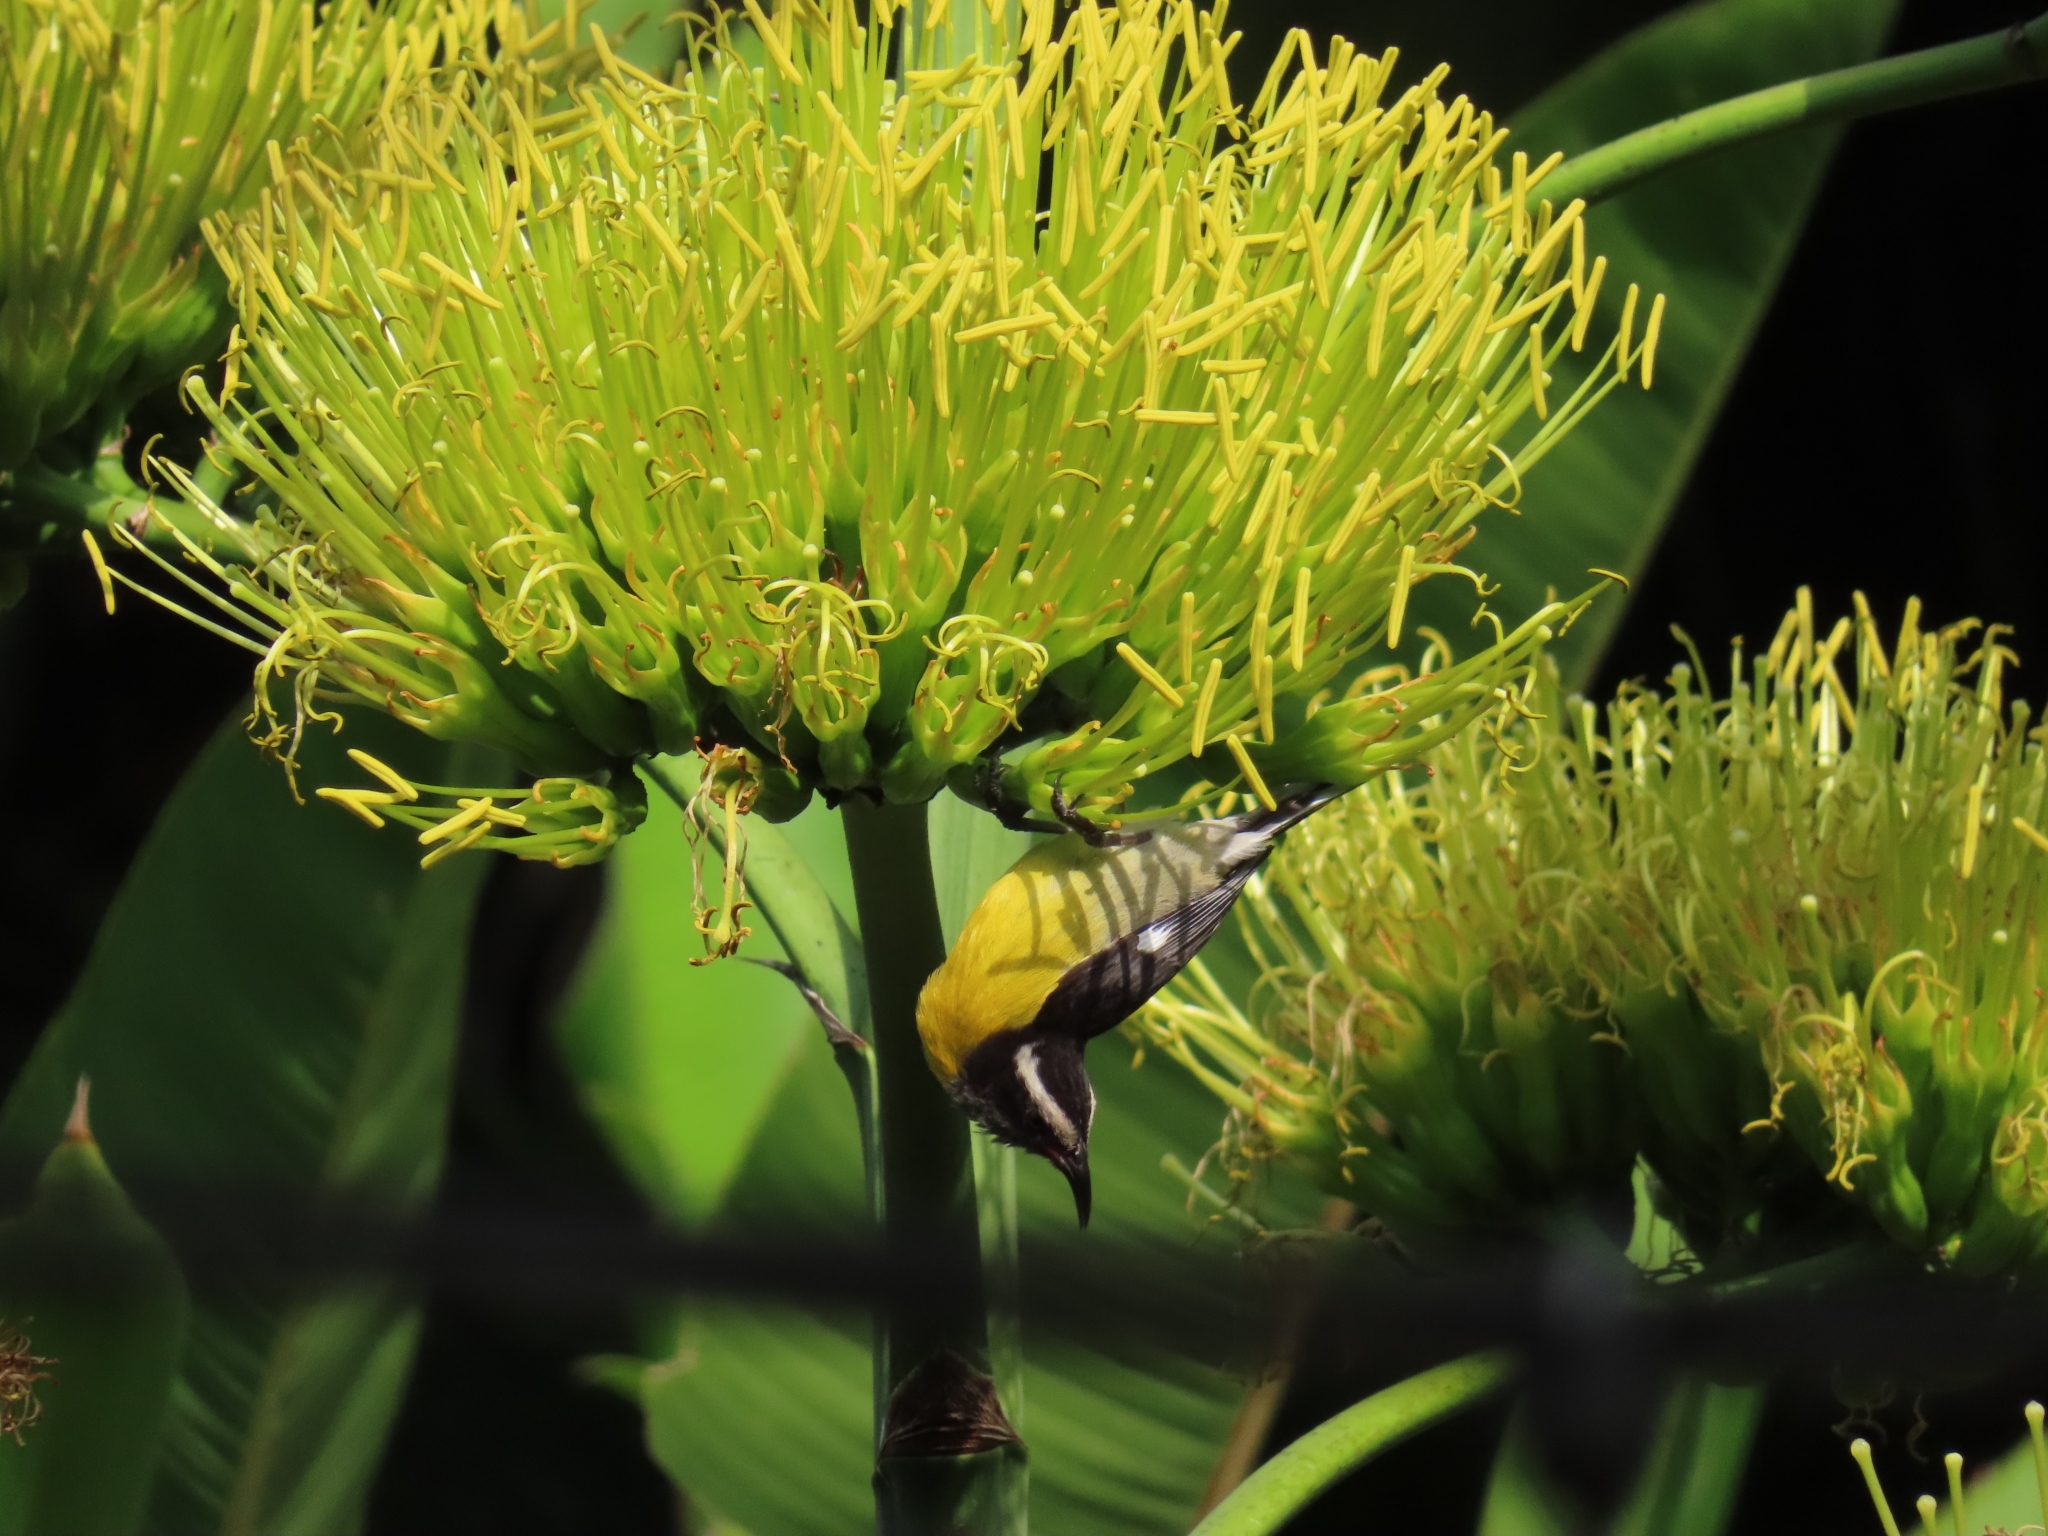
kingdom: Animalia
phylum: Chordata
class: Aves
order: Passeriformes
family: Thraupidae
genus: Coereba
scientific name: Coereba flaveola
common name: Bananaquit
